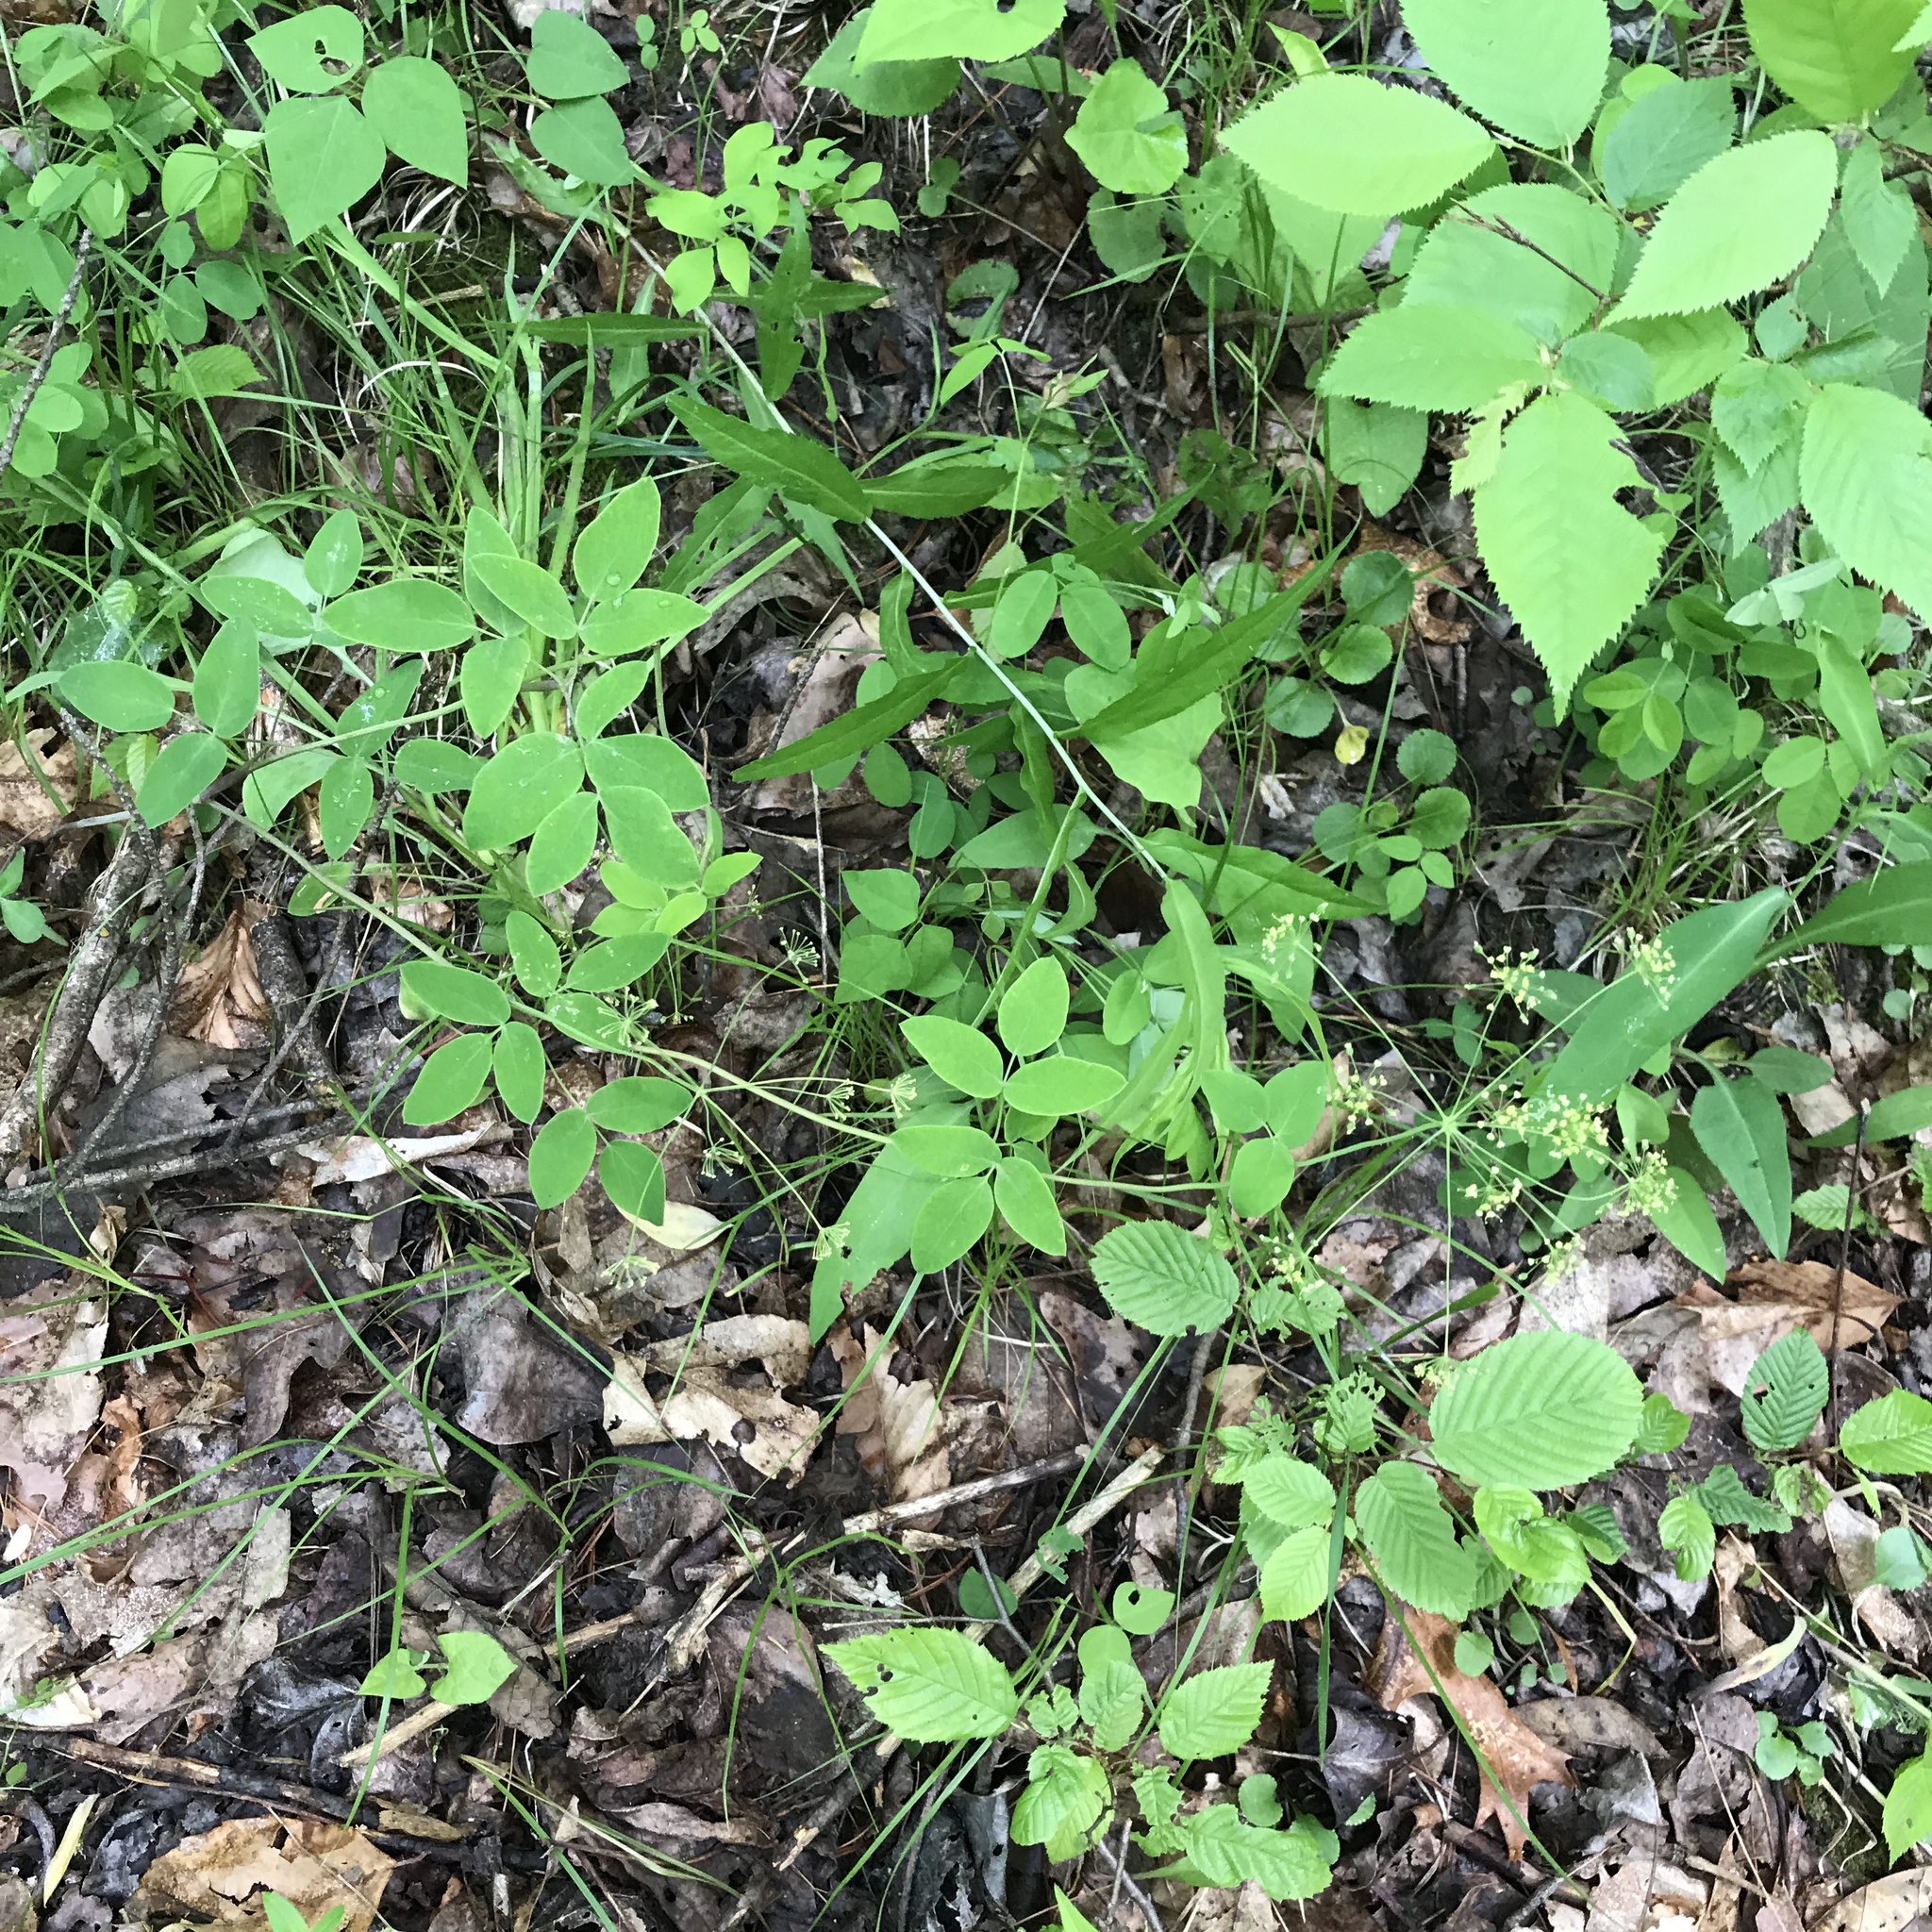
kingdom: Plantae
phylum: Tracheophyta
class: Magnoliopsida
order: Apiales
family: Apiaceae
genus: Taenidia
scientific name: Taenidia integerrima
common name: Golden alexander
